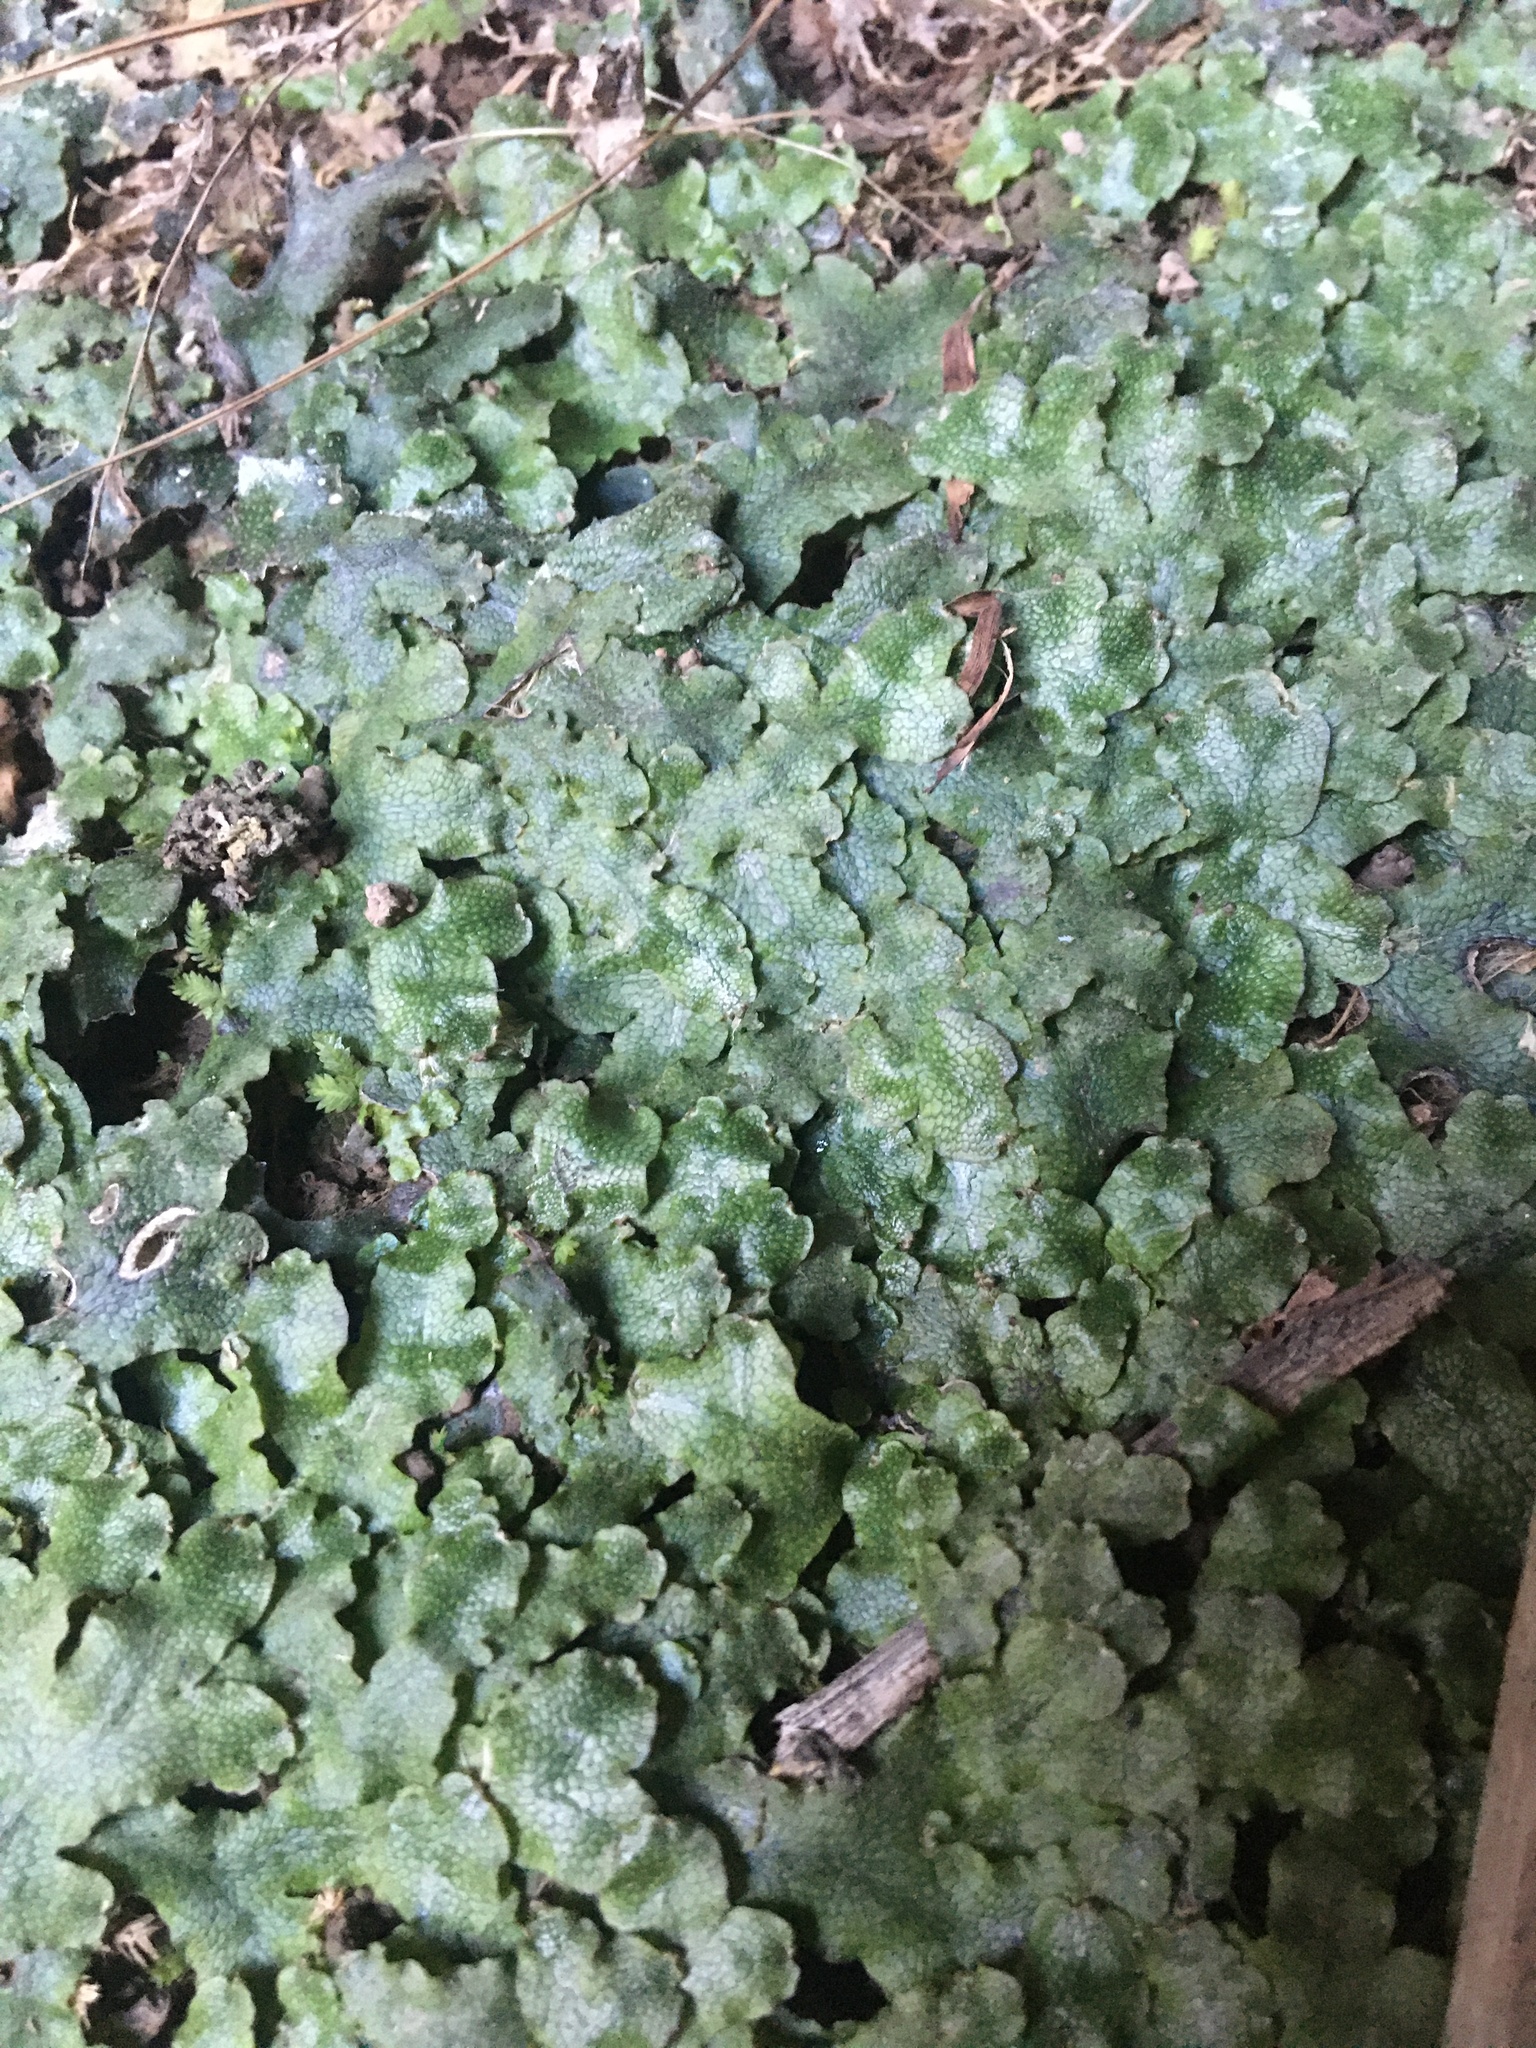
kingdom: Plantae
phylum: Marchantiophyta
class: Marchantiopsida
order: Marchantiales
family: Conocephalaceae
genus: Conocephalum
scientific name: Conocephalum salebrosum
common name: Cat-tongue liverwort
